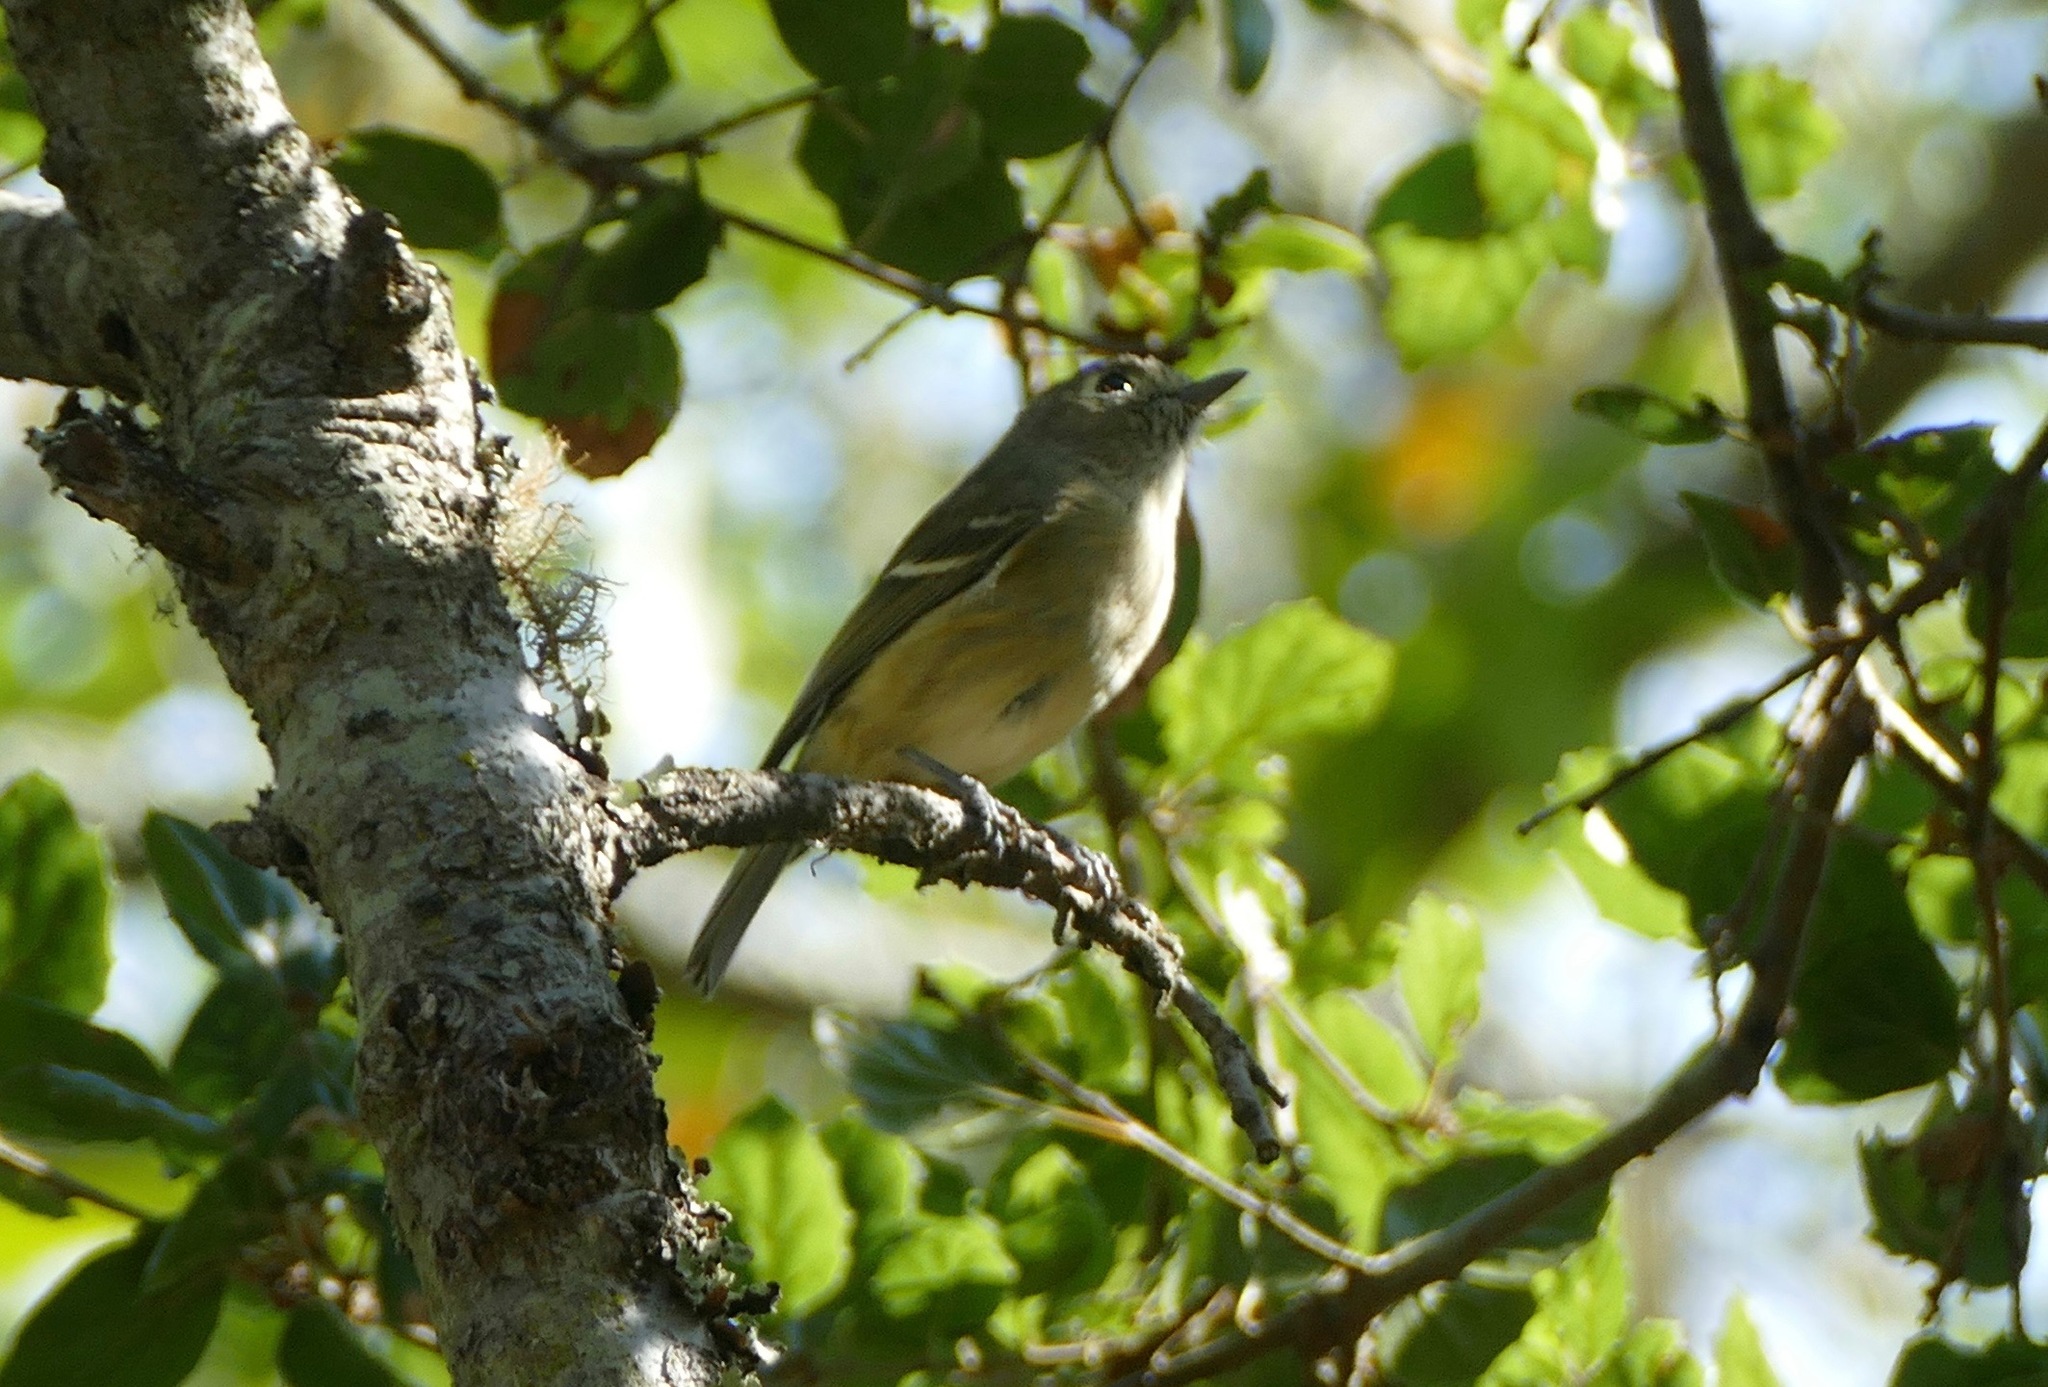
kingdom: Animalia
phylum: Chordata
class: Aves
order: Passeriformes
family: Vireonidae
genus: Vireo
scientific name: Vireo huttoni
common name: Hutton's vireo
